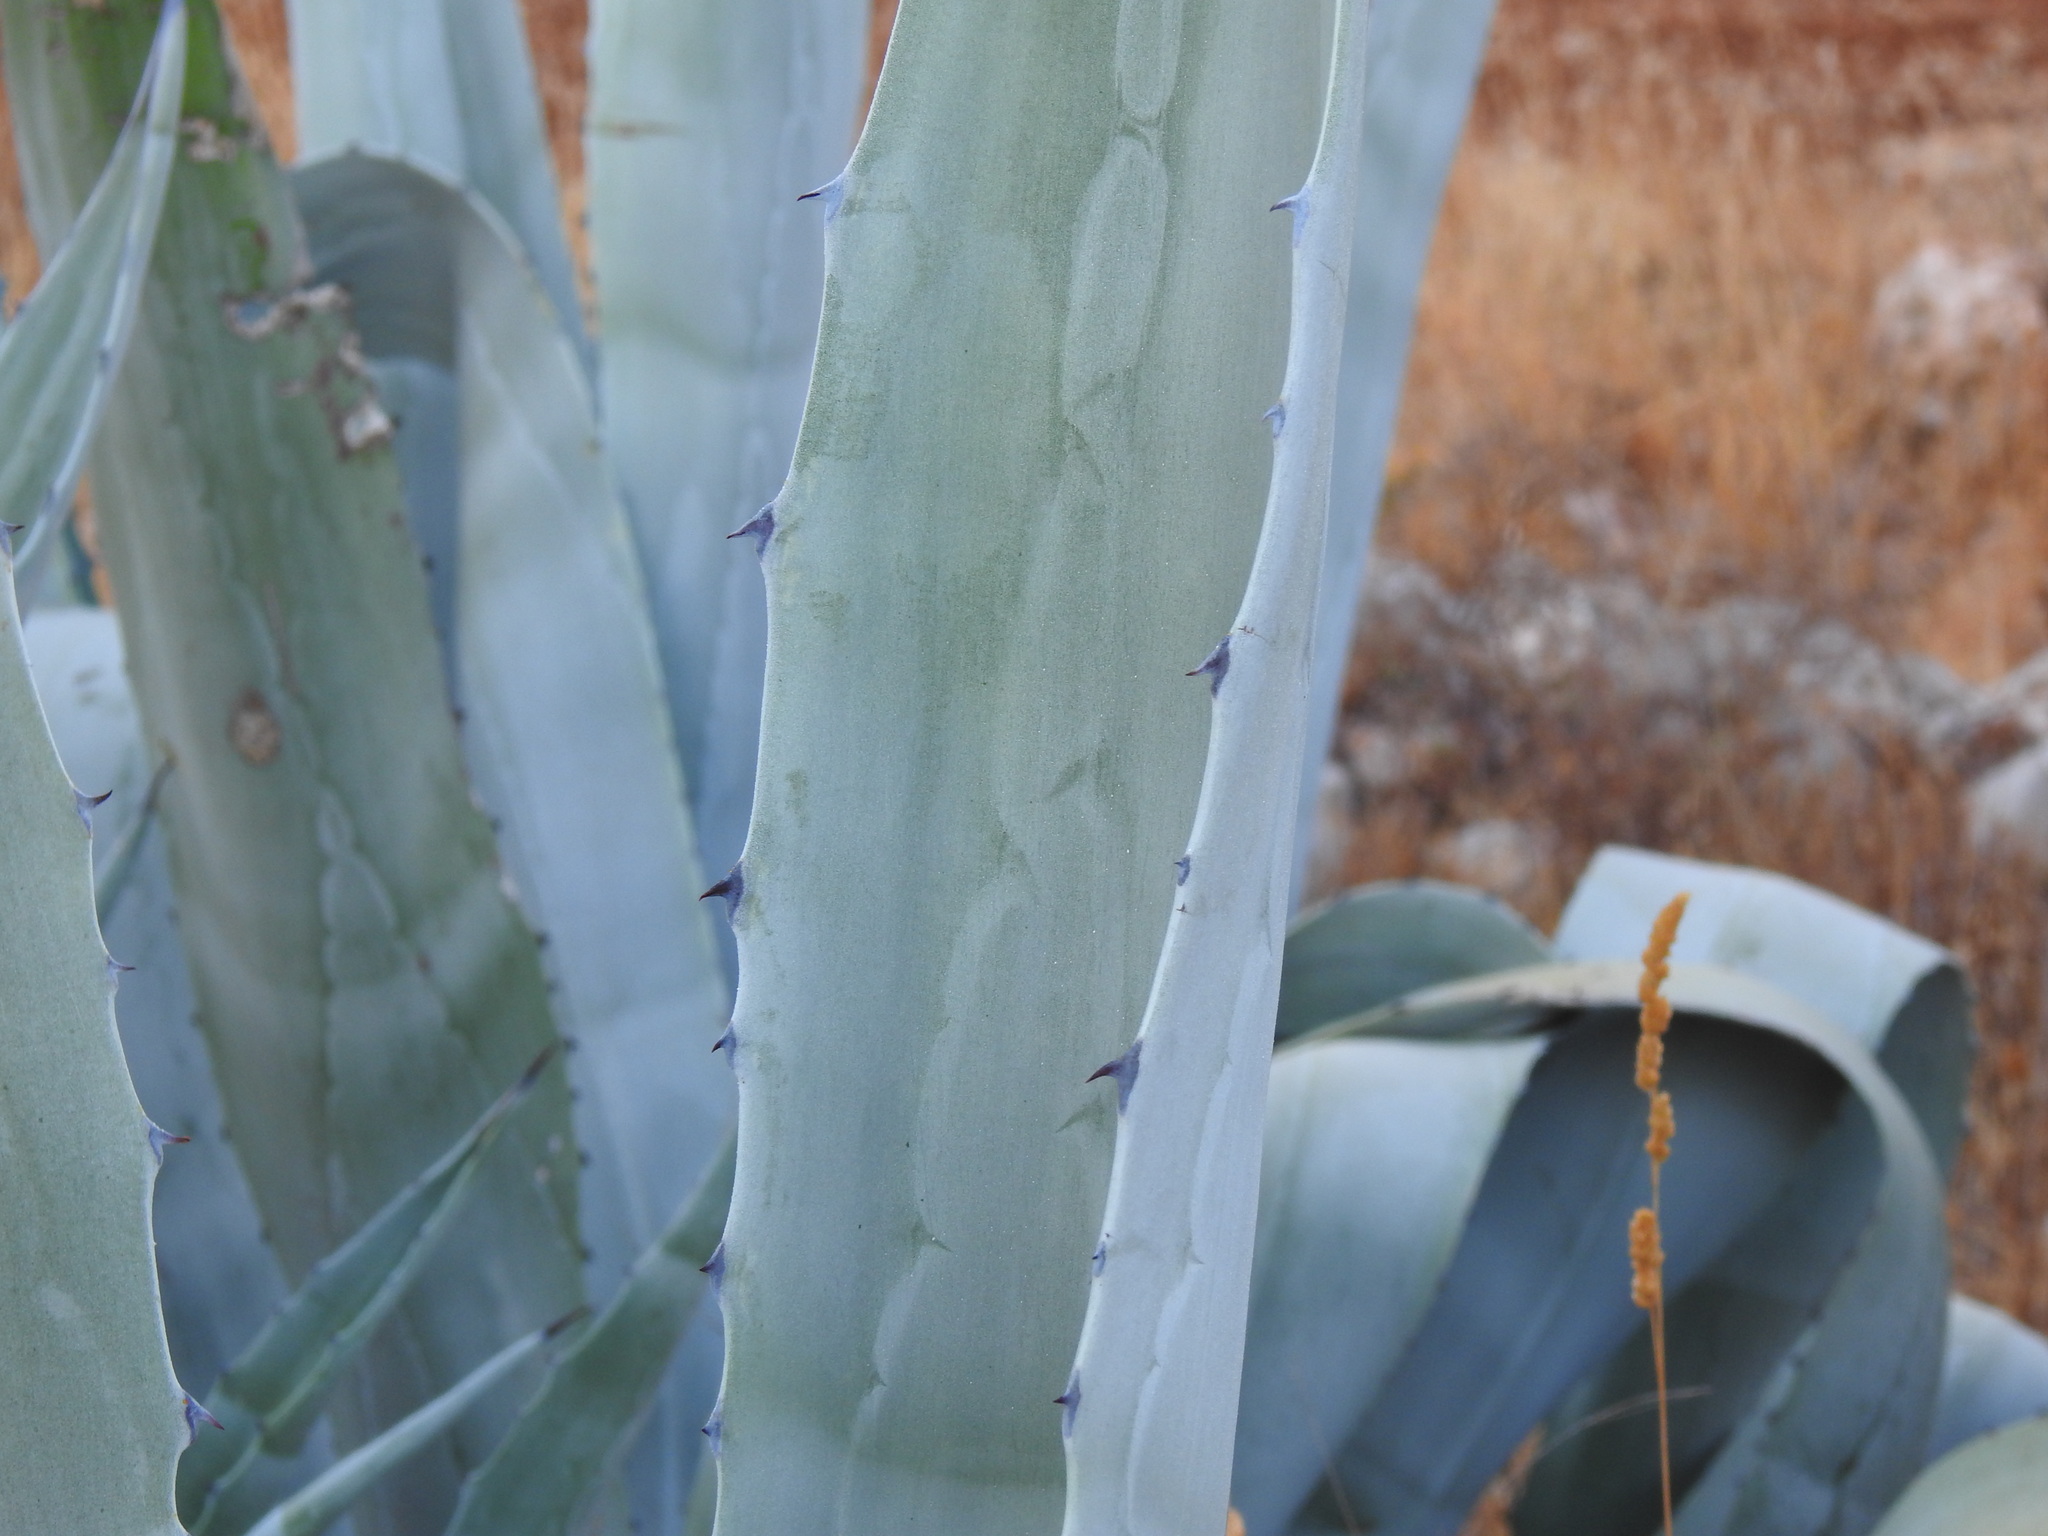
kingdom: Plantae
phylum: Tracheophyta
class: Liliopsida
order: Asparagales
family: Asparagaceae
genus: Agave
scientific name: Agave americana
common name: Centuryplant
